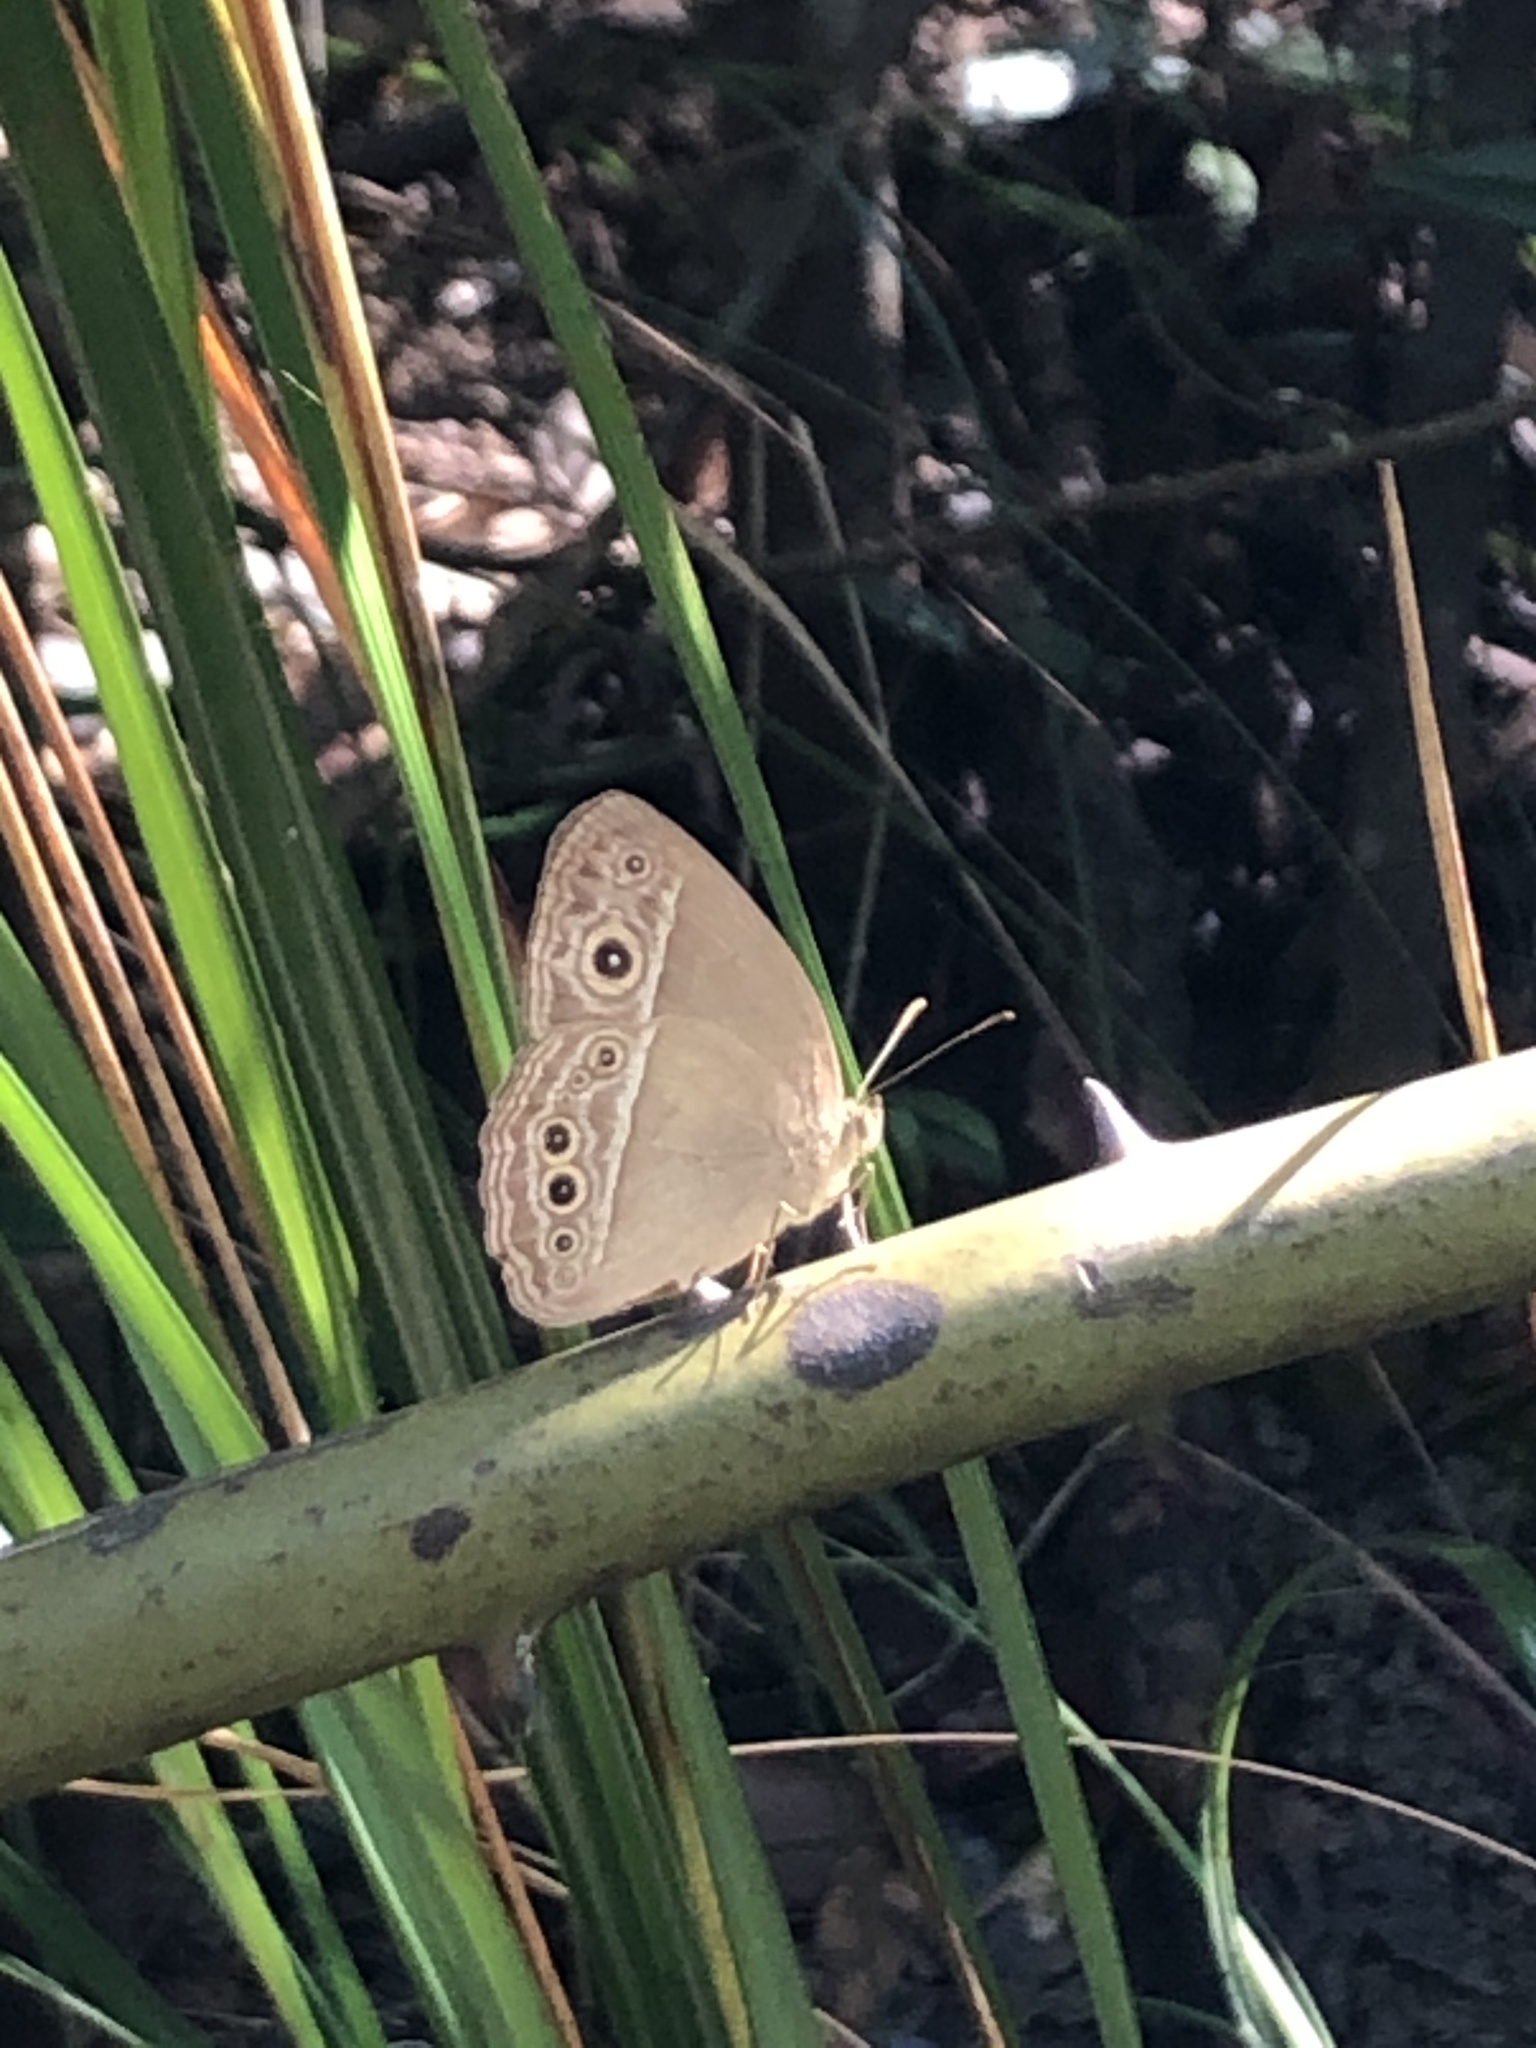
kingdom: Animalia
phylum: Arthropoda
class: Insecta
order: Lepidoptera
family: Nymphalidae
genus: Mycalesis
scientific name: Mycalesis mineus
